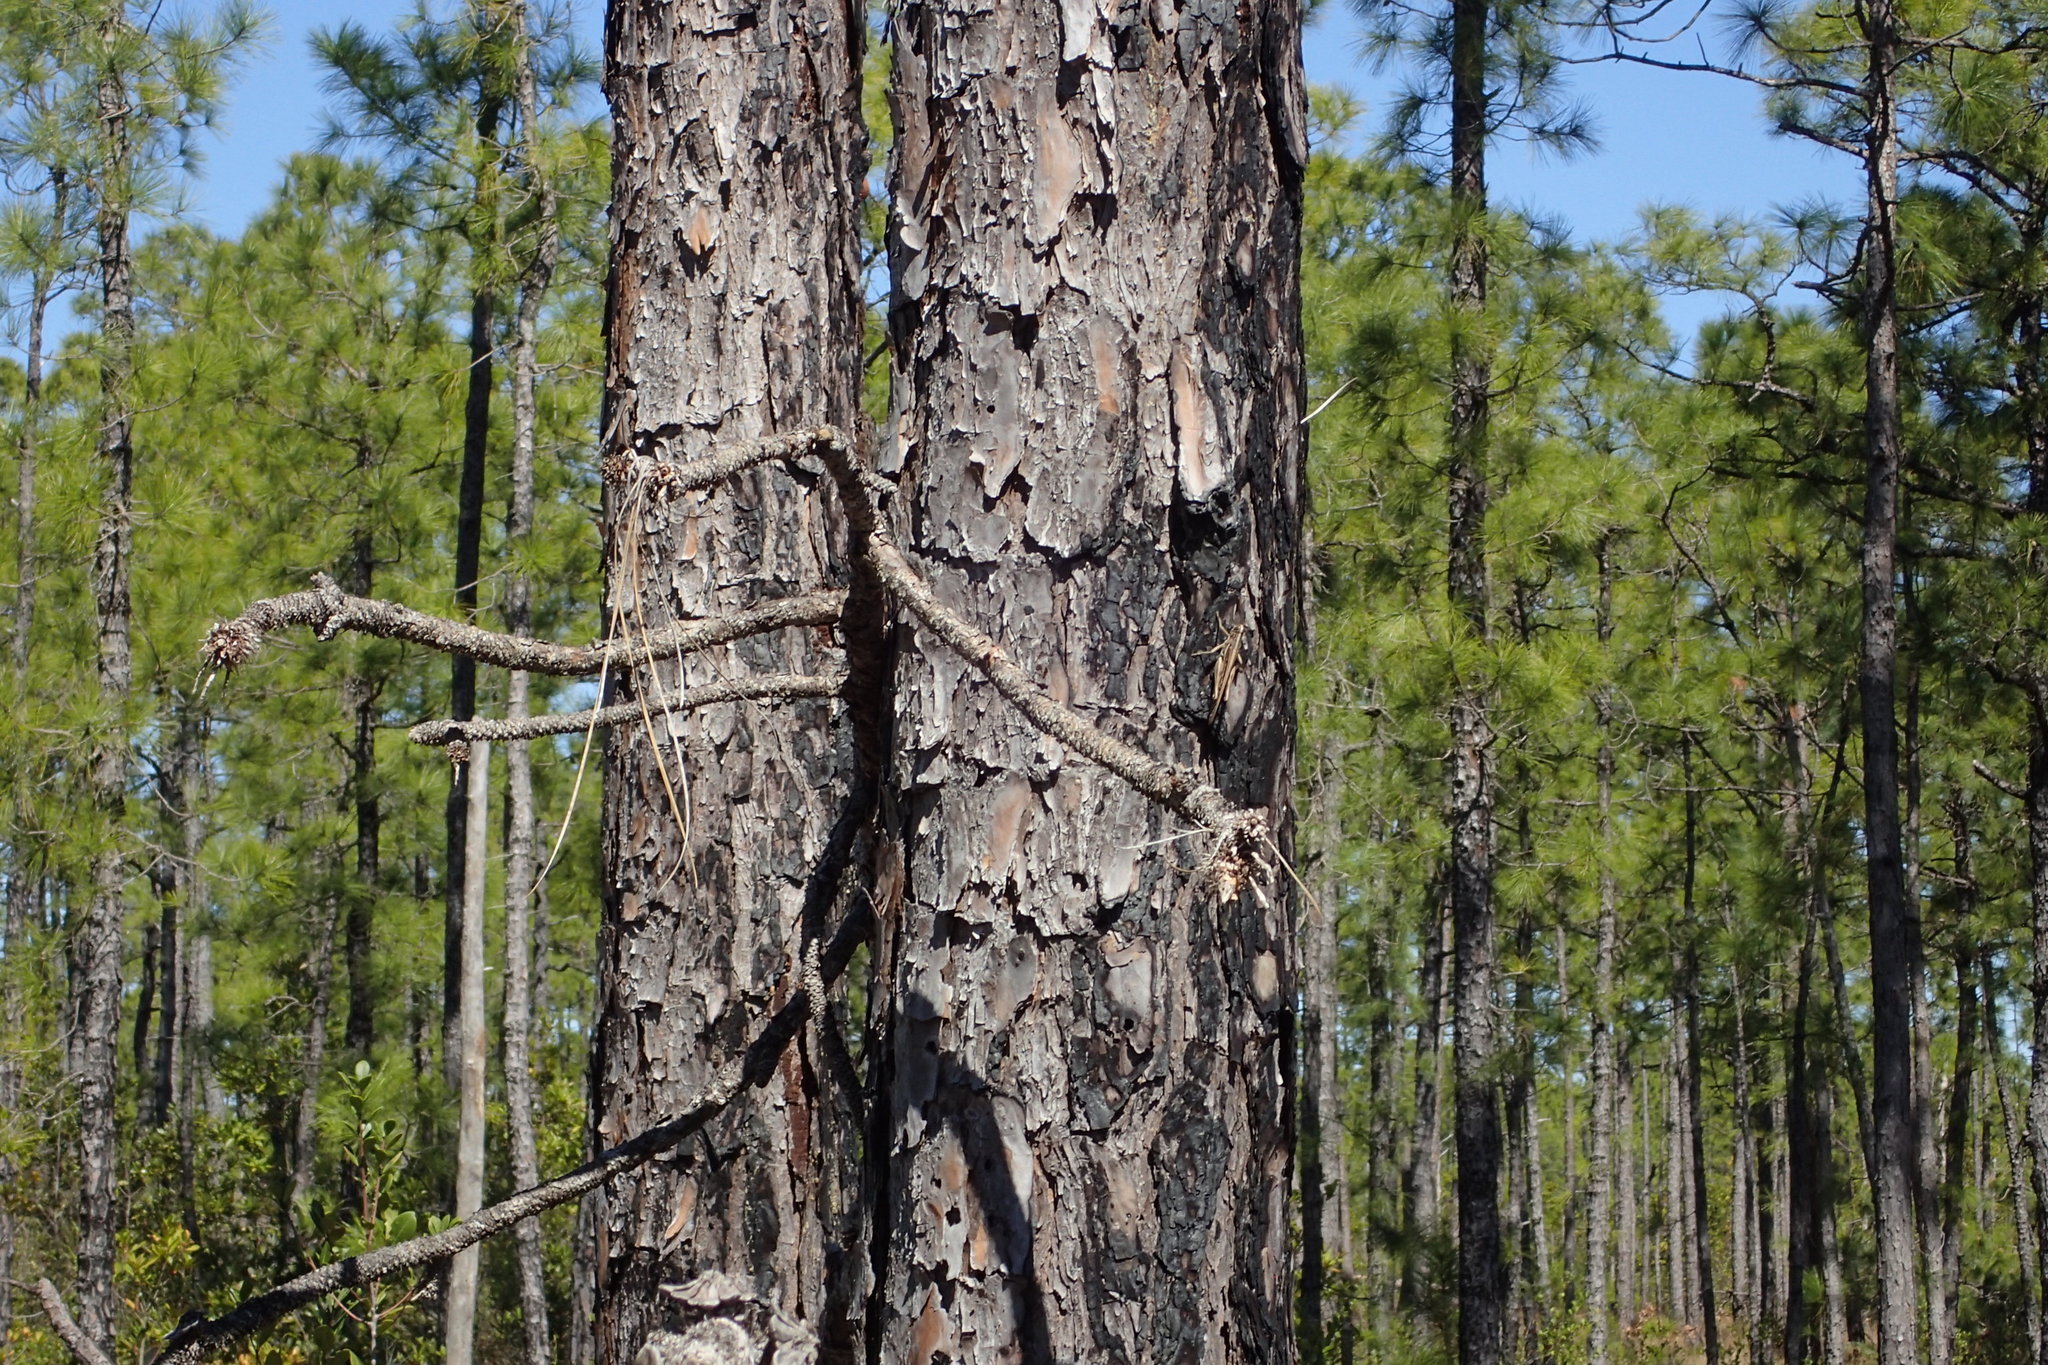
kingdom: Animalia
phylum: Arthropoda
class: Insecta
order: Orthoptera
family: Acrididae
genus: Schistocerca
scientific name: Schistocerca americana
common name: American bird locust
